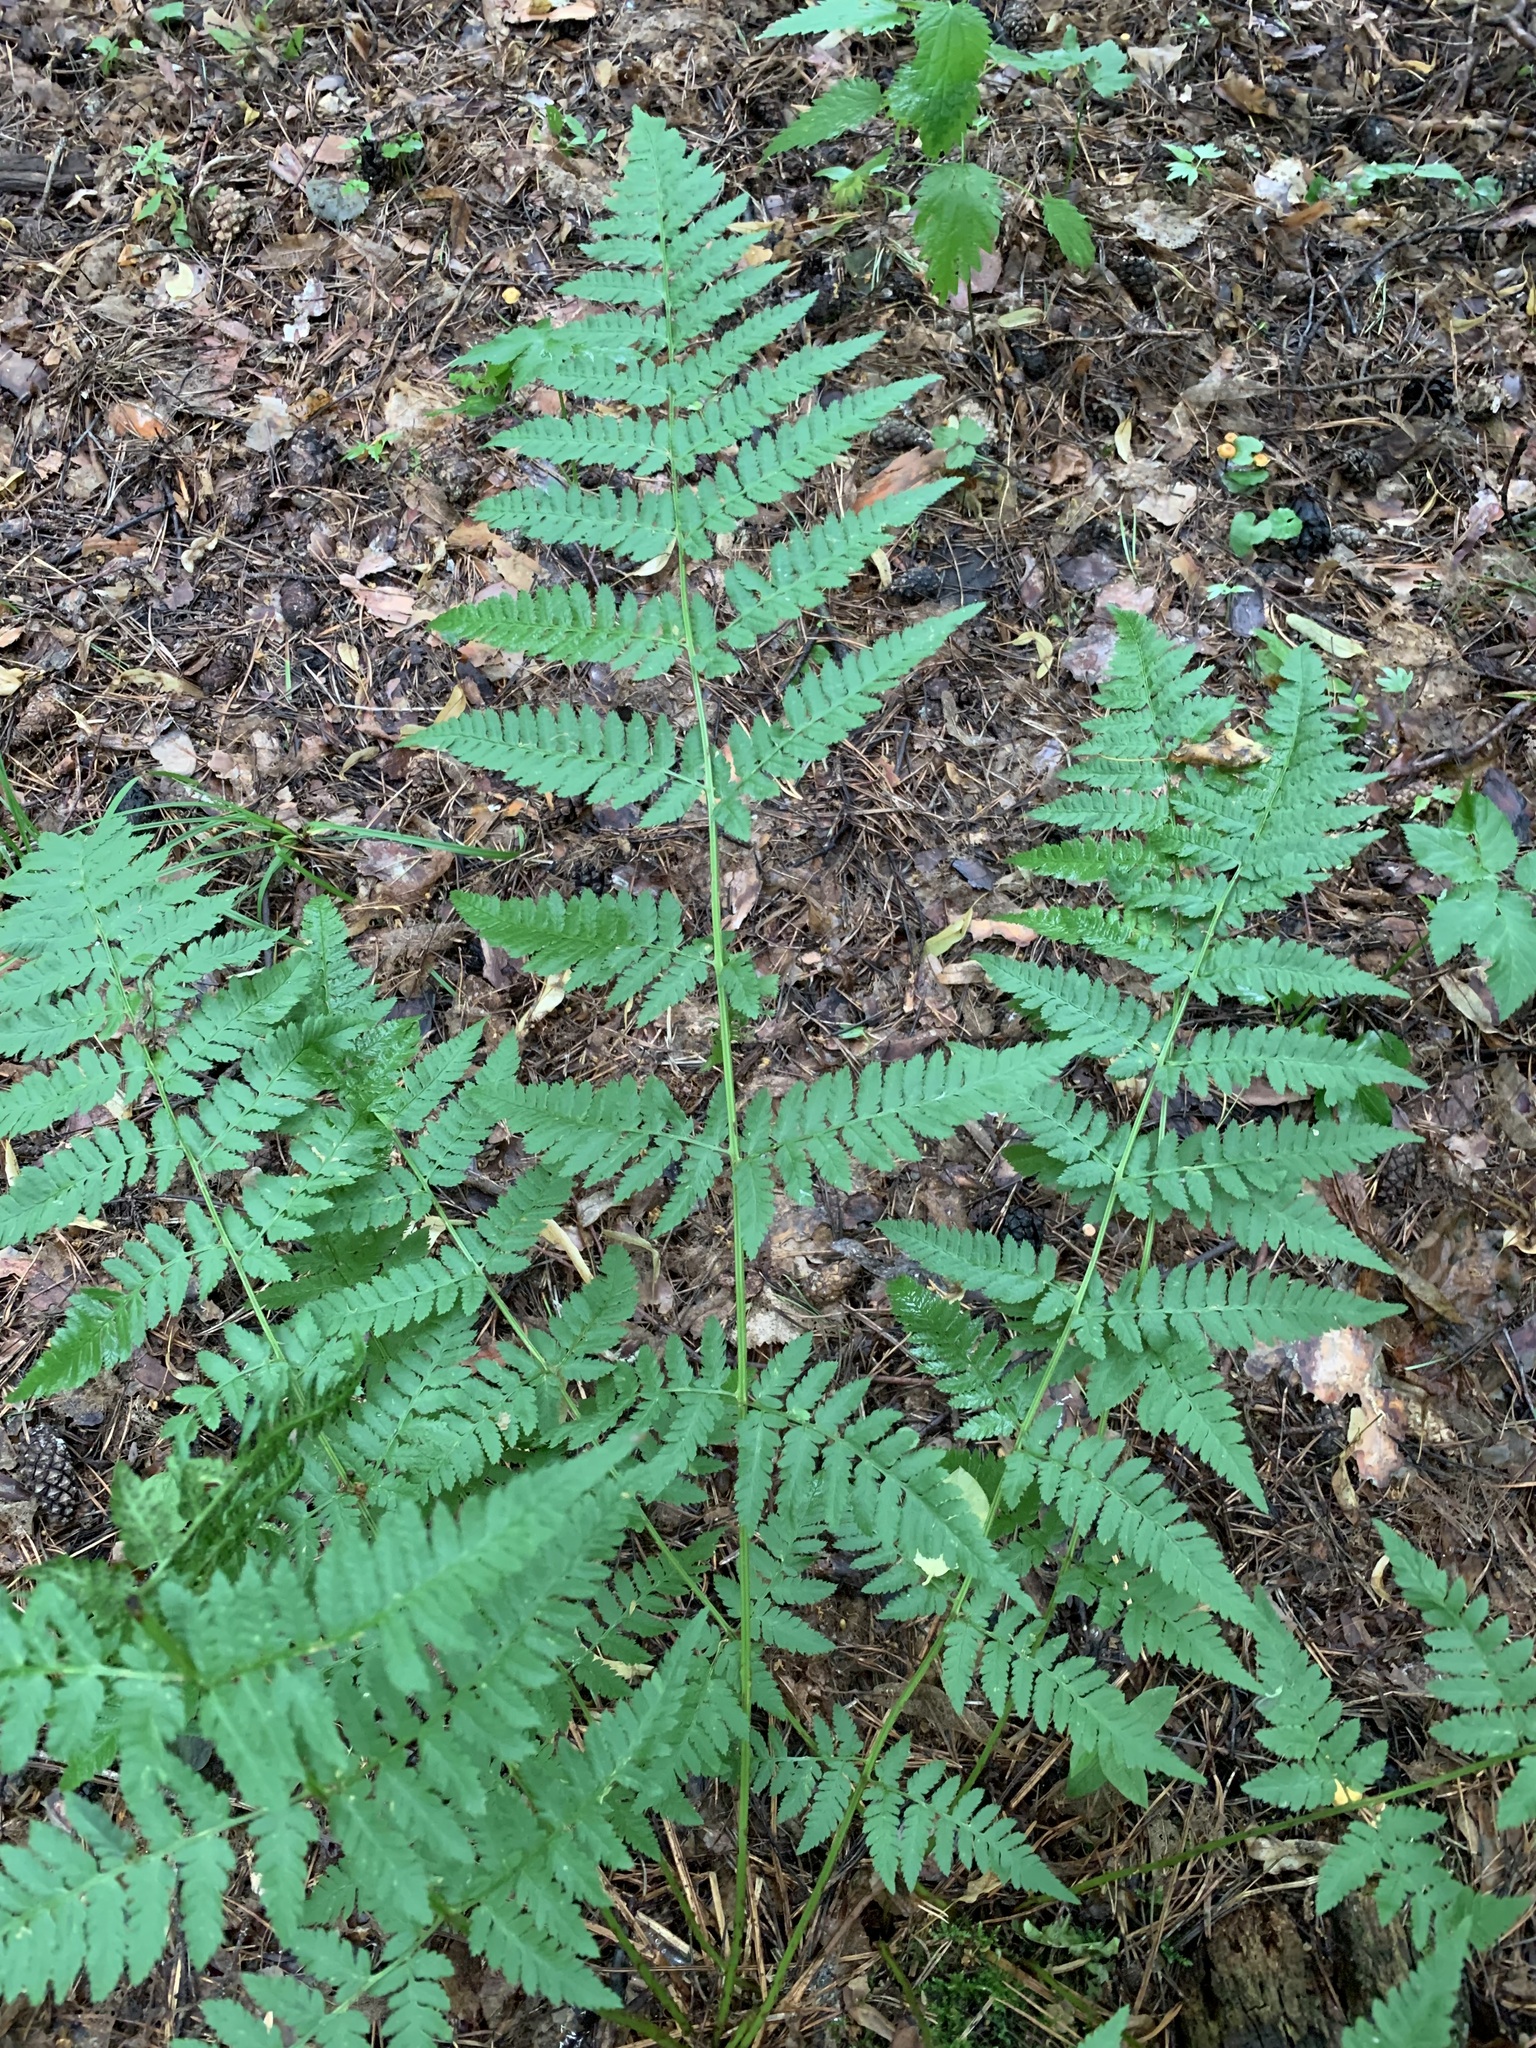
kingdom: Plantae
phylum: Tracheophyta
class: Polypodiopsida
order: Polypodiales
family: Dryopteridaceae
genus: Dryopteris
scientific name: Dryopteris carthusiana
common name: Narrow buckler-fern
